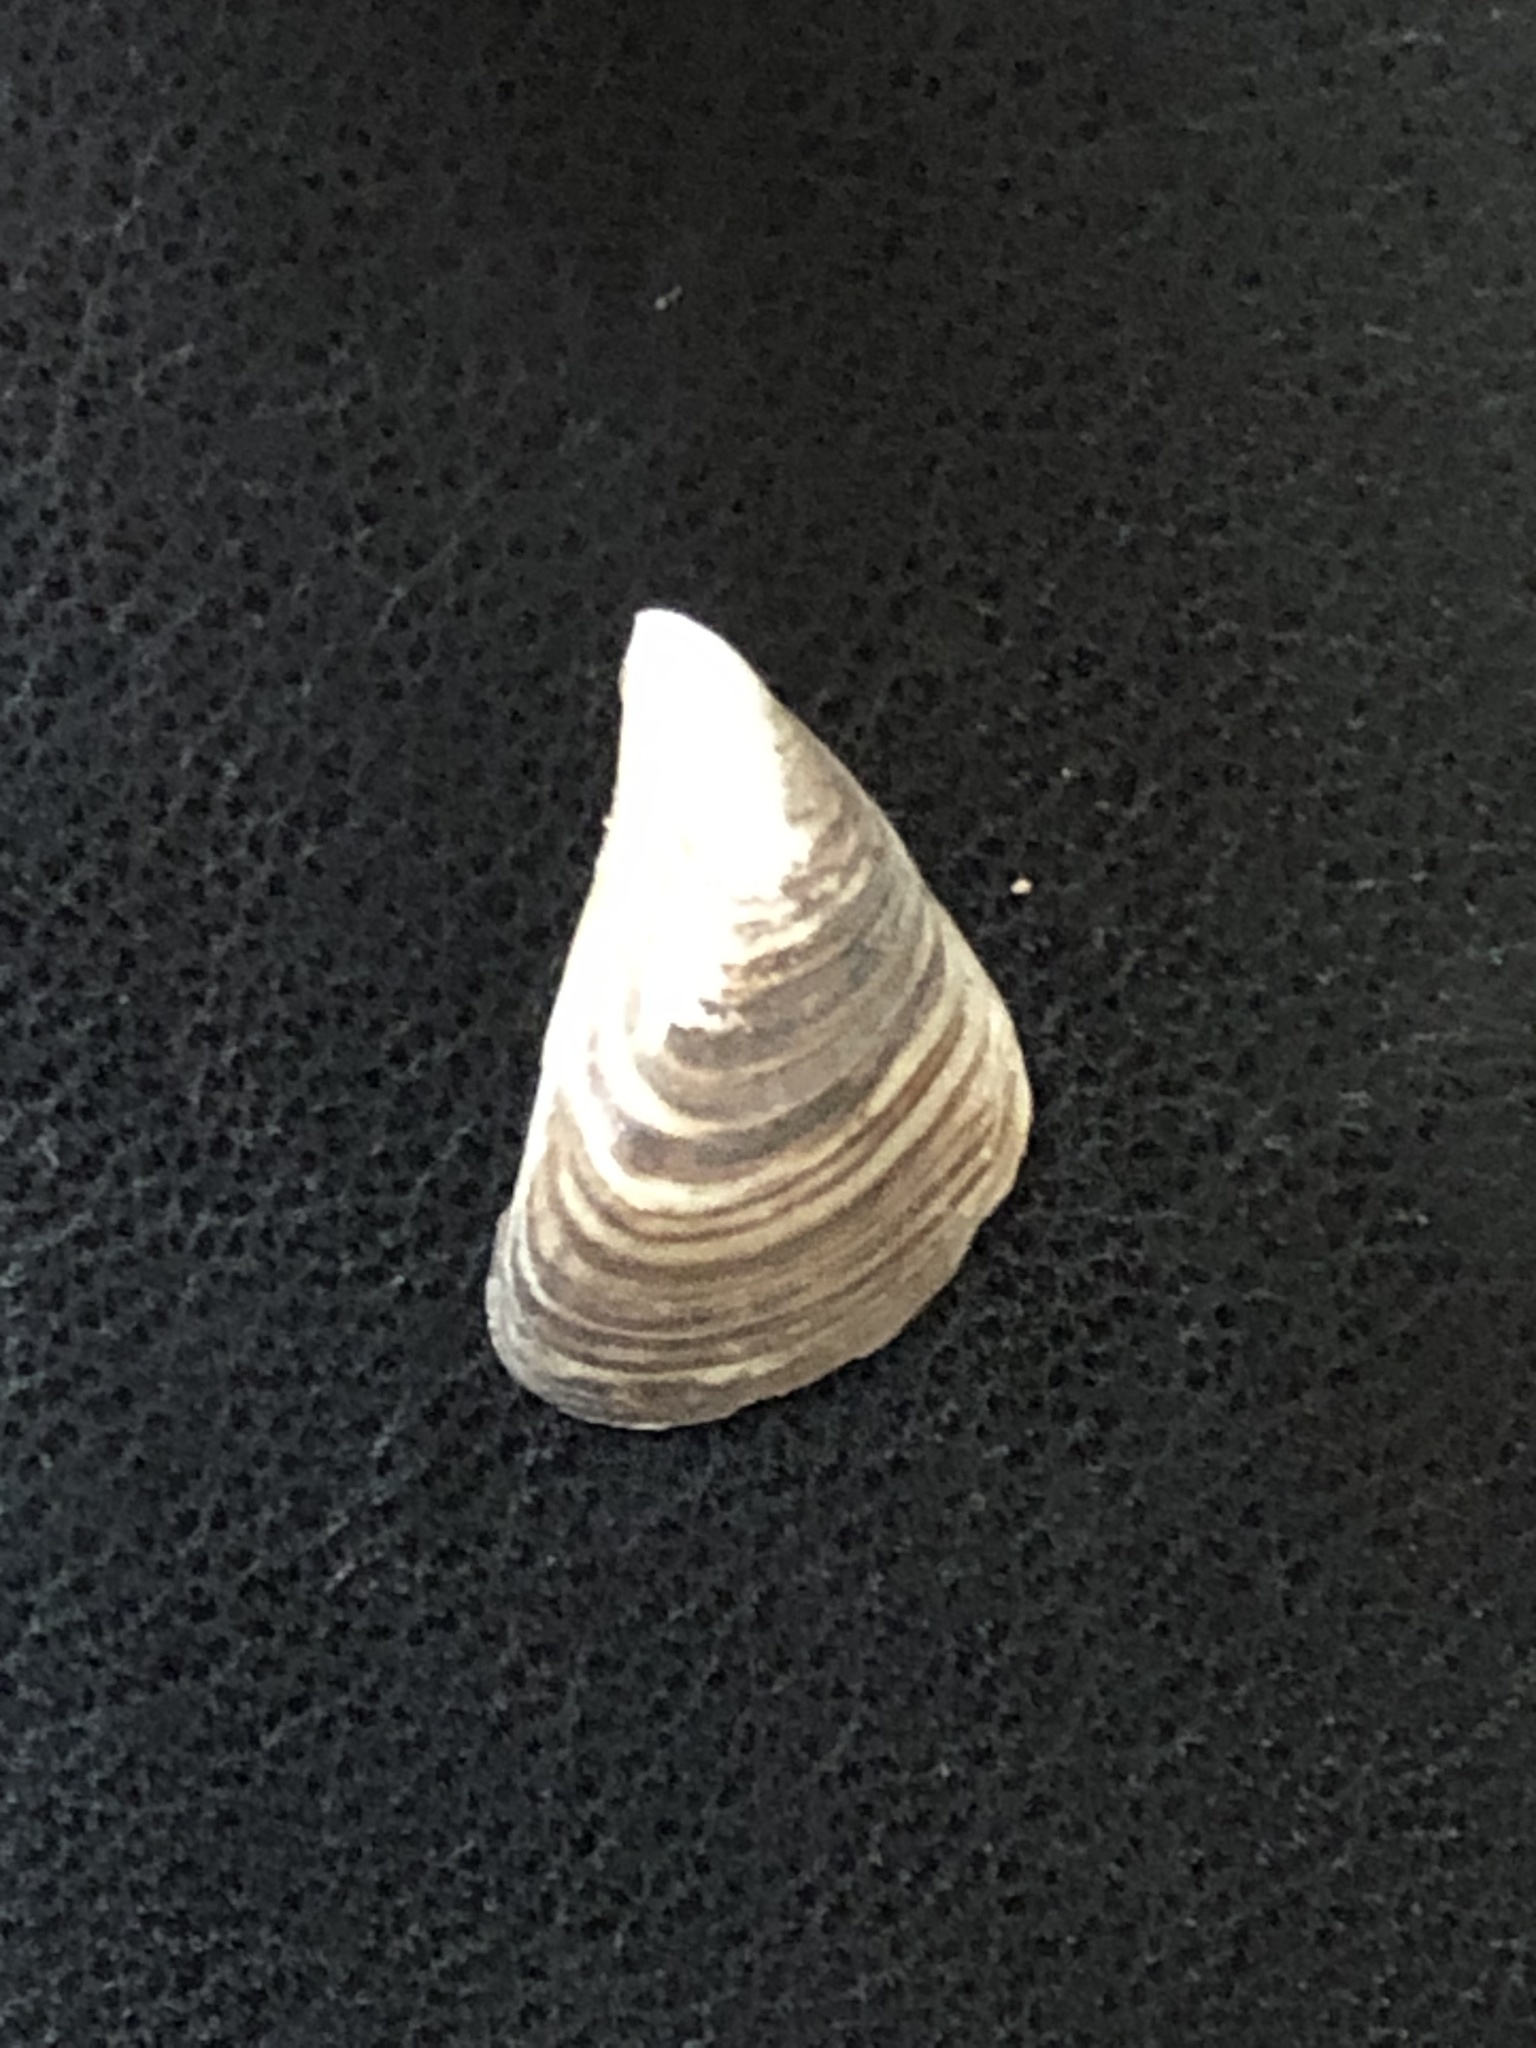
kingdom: Animalia
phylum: Mollusca
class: Bivalvia
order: Myida
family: Dreissenidae
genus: Dreissena
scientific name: Dreissena bugensis
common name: Quagga mussel
